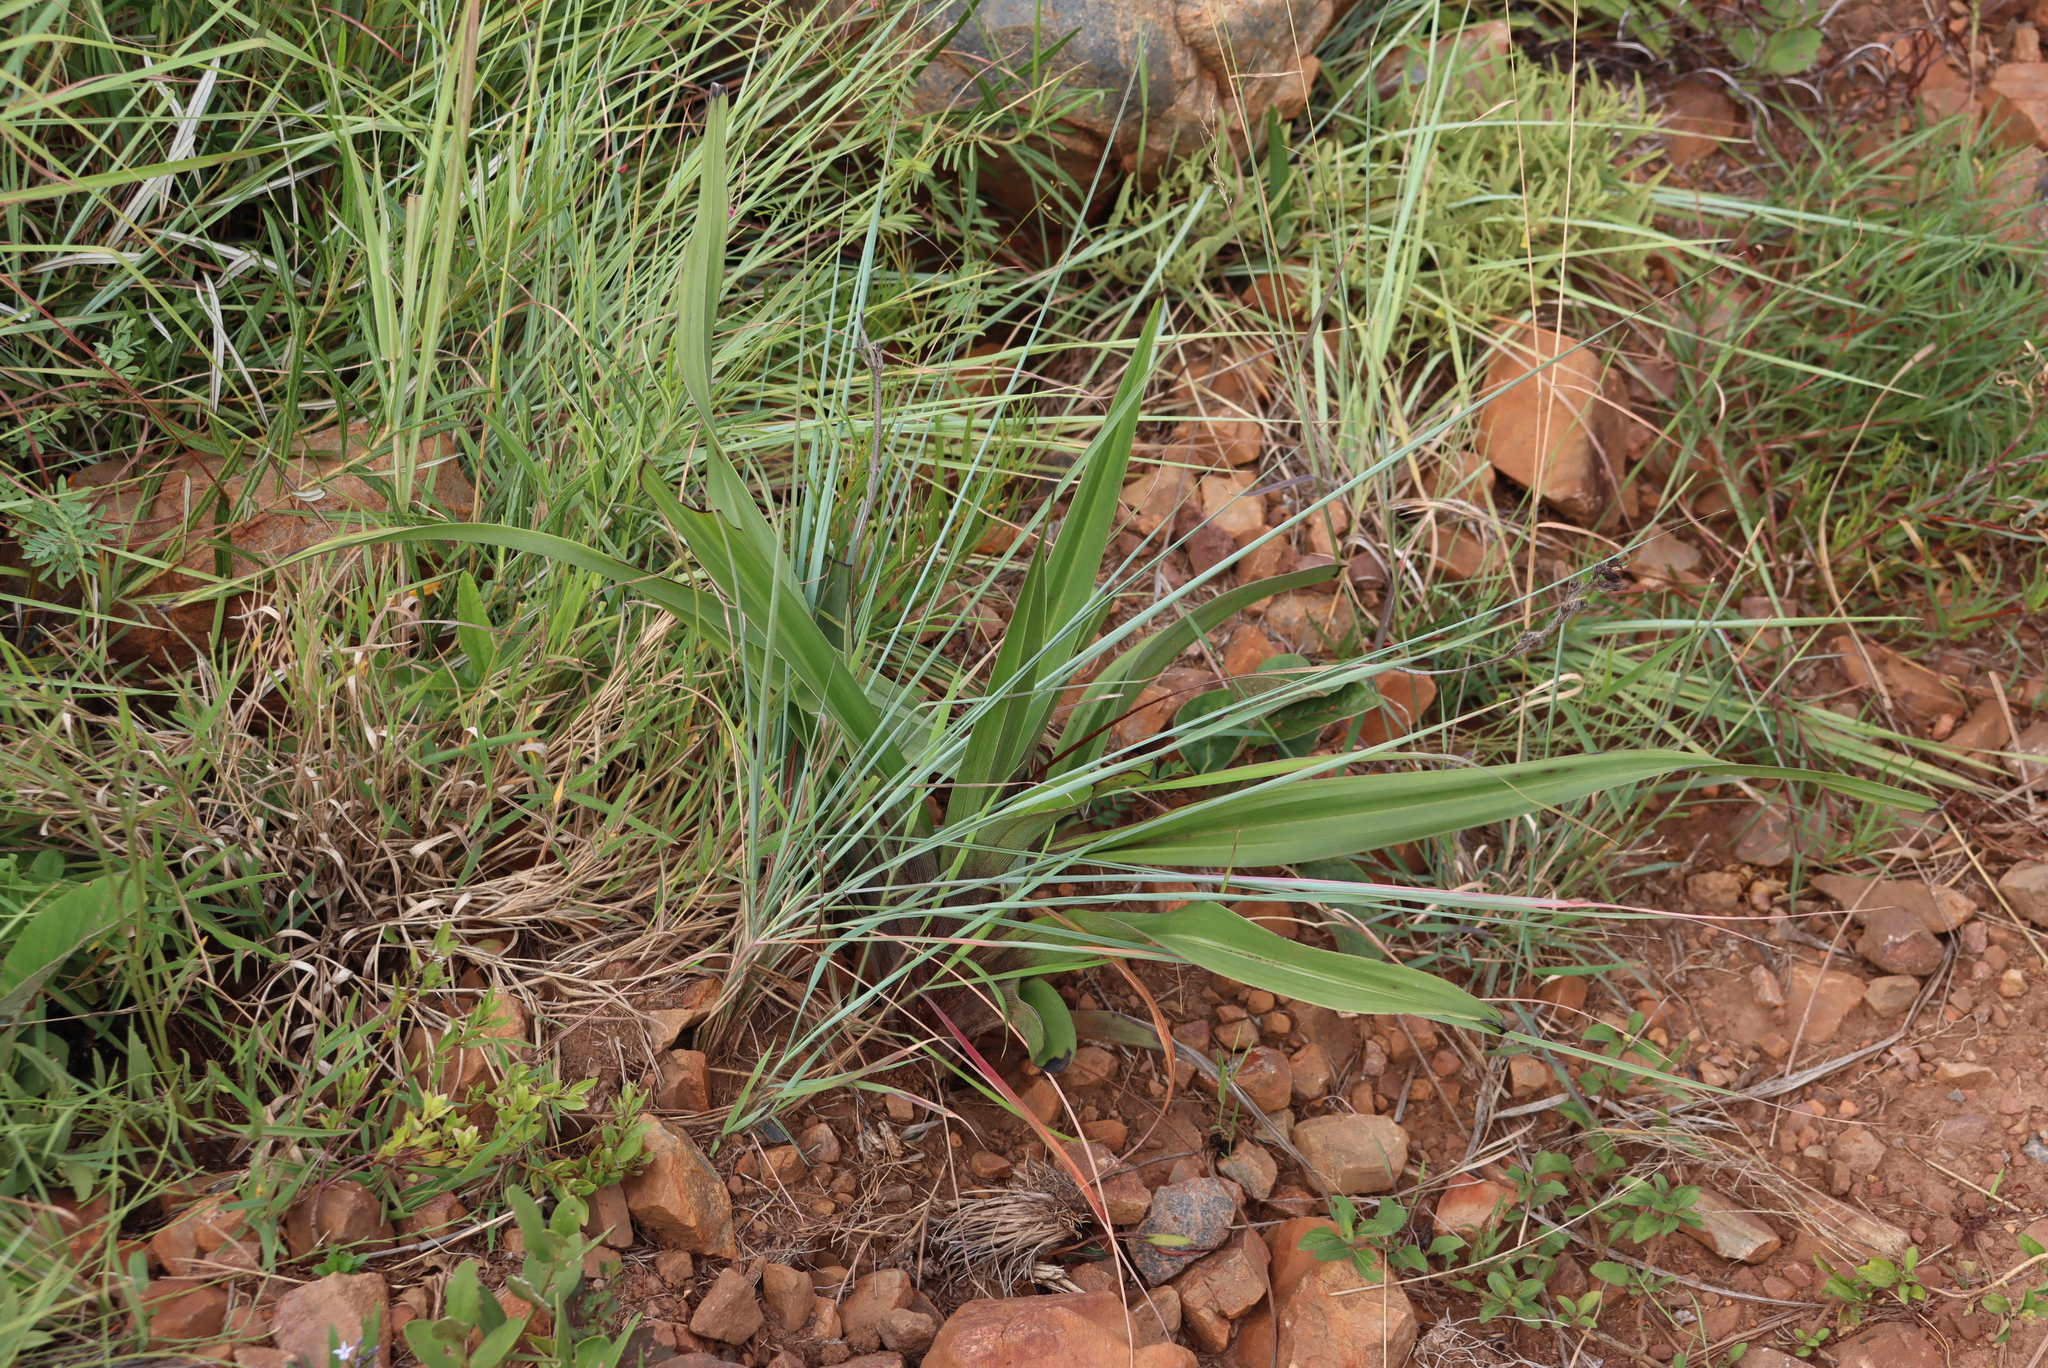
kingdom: Plantae
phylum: Tracheophyta
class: Liliopsida
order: Asparagales
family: Hypoxidaceae
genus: Hypoxis
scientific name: Hypoxis hemerocallidea
